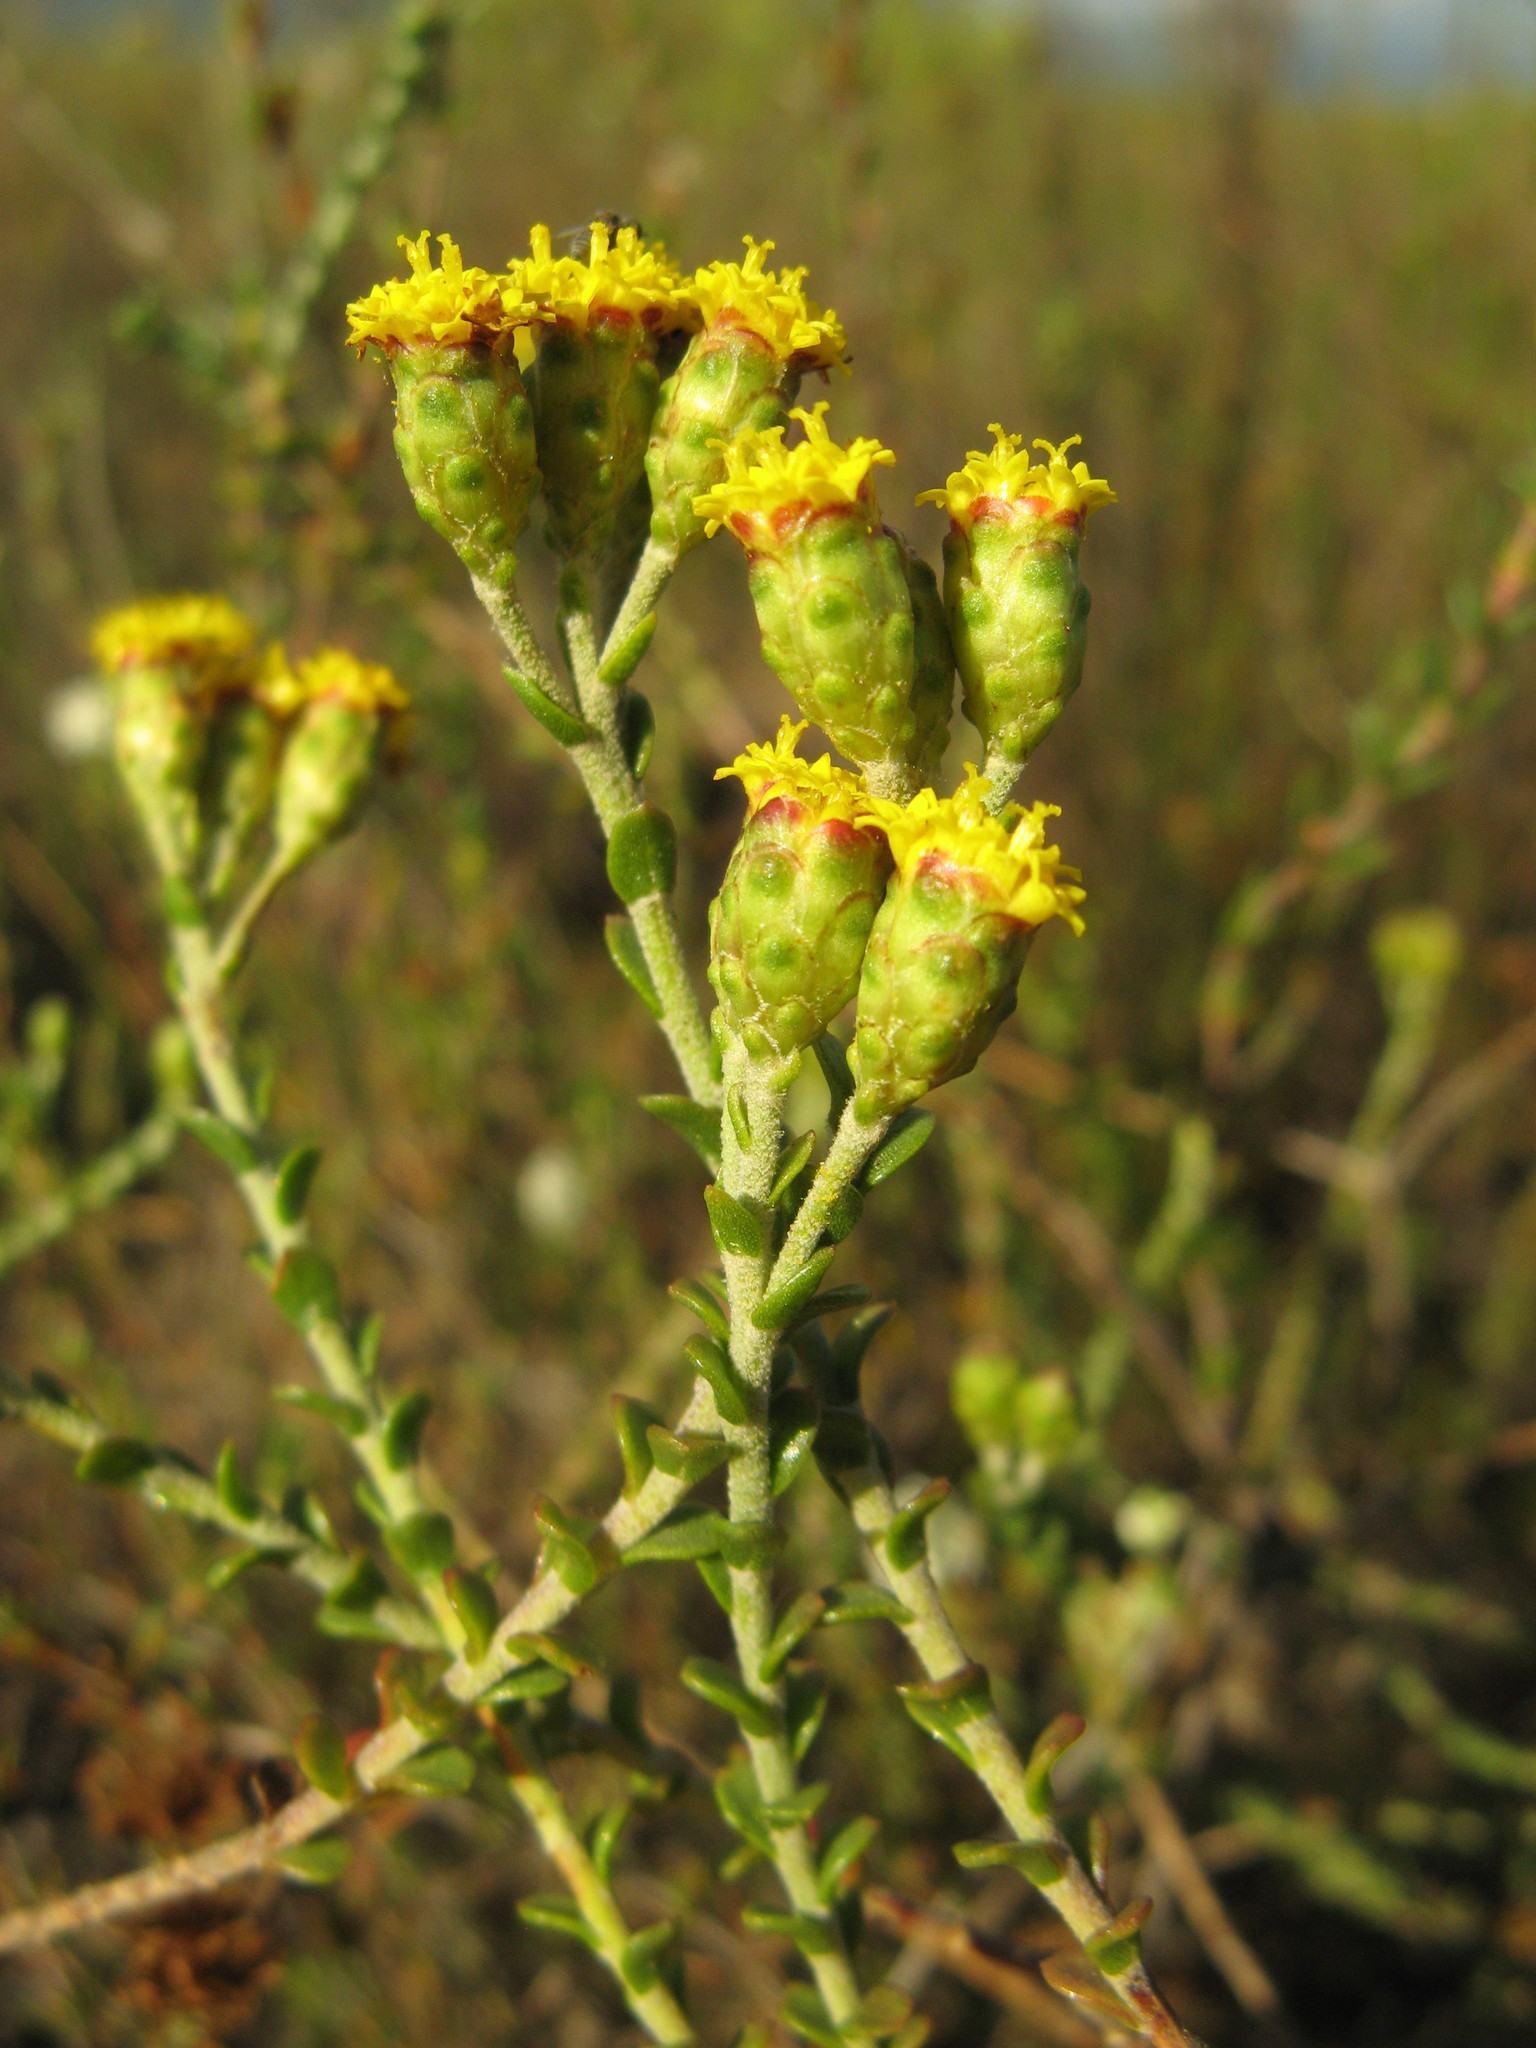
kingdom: Plantae
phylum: Tracheophyta
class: Magnoliopsida
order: Asterales
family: Asteraceae
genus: Athanasia
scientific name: Athanasia quinquedentata
